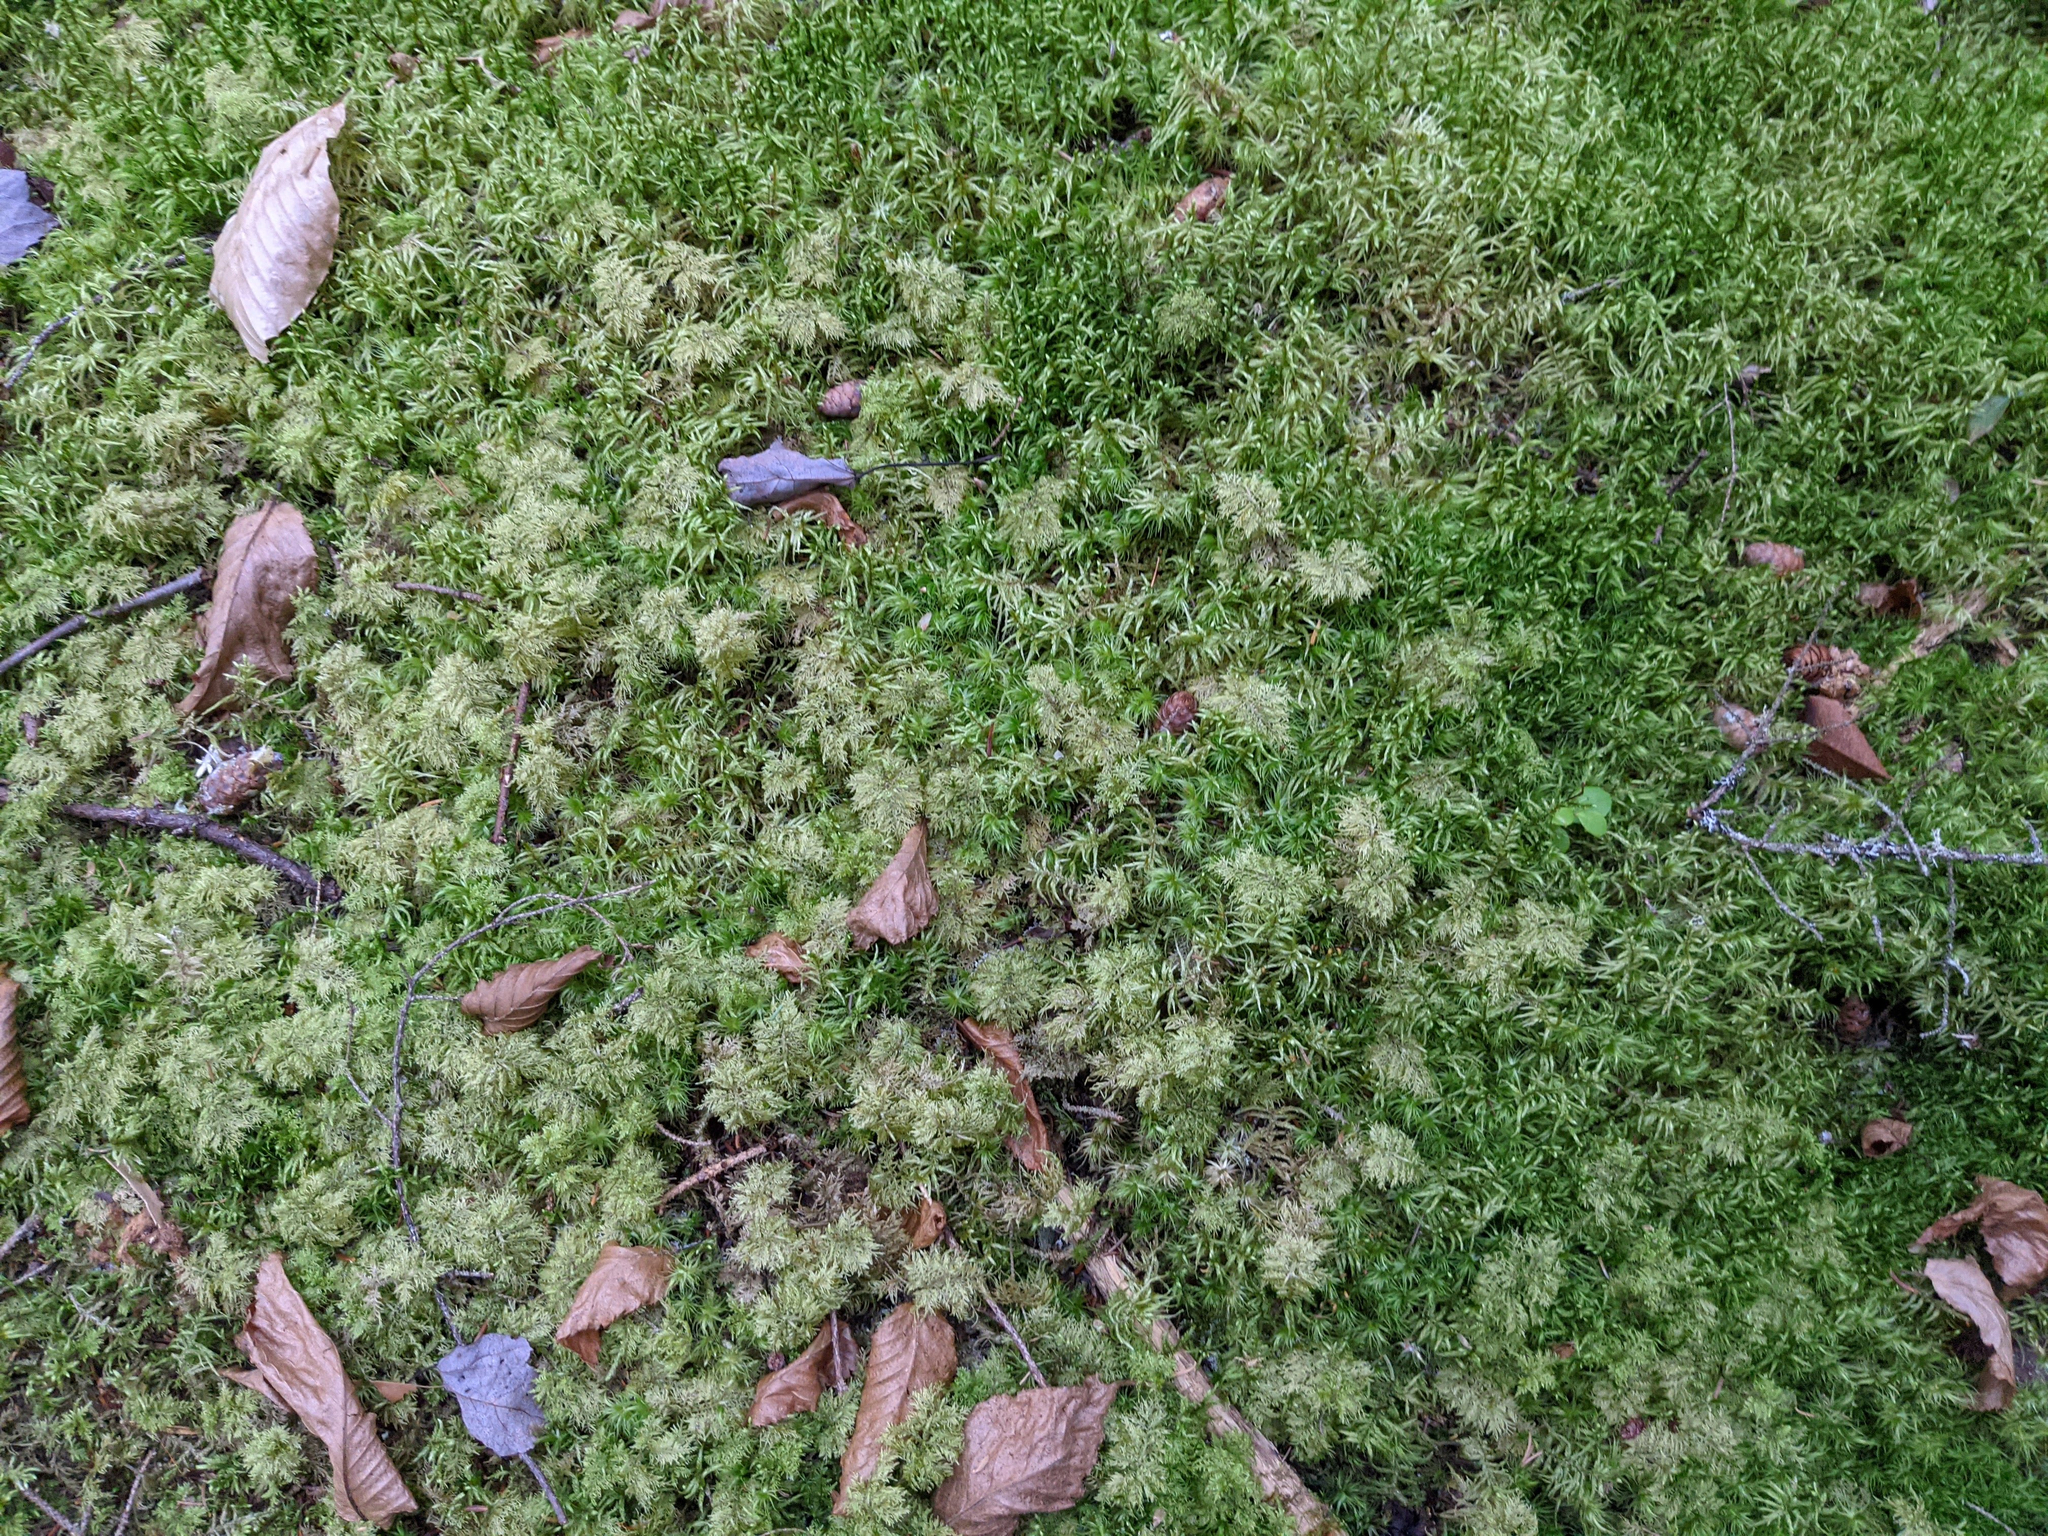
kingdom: Plantae
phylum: Bryophyta
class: Bryopsida
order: Hypnales
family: Hylocomiaceae
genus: Hylocomium
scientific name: Hylocomium splendens
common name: Stairstep moss
